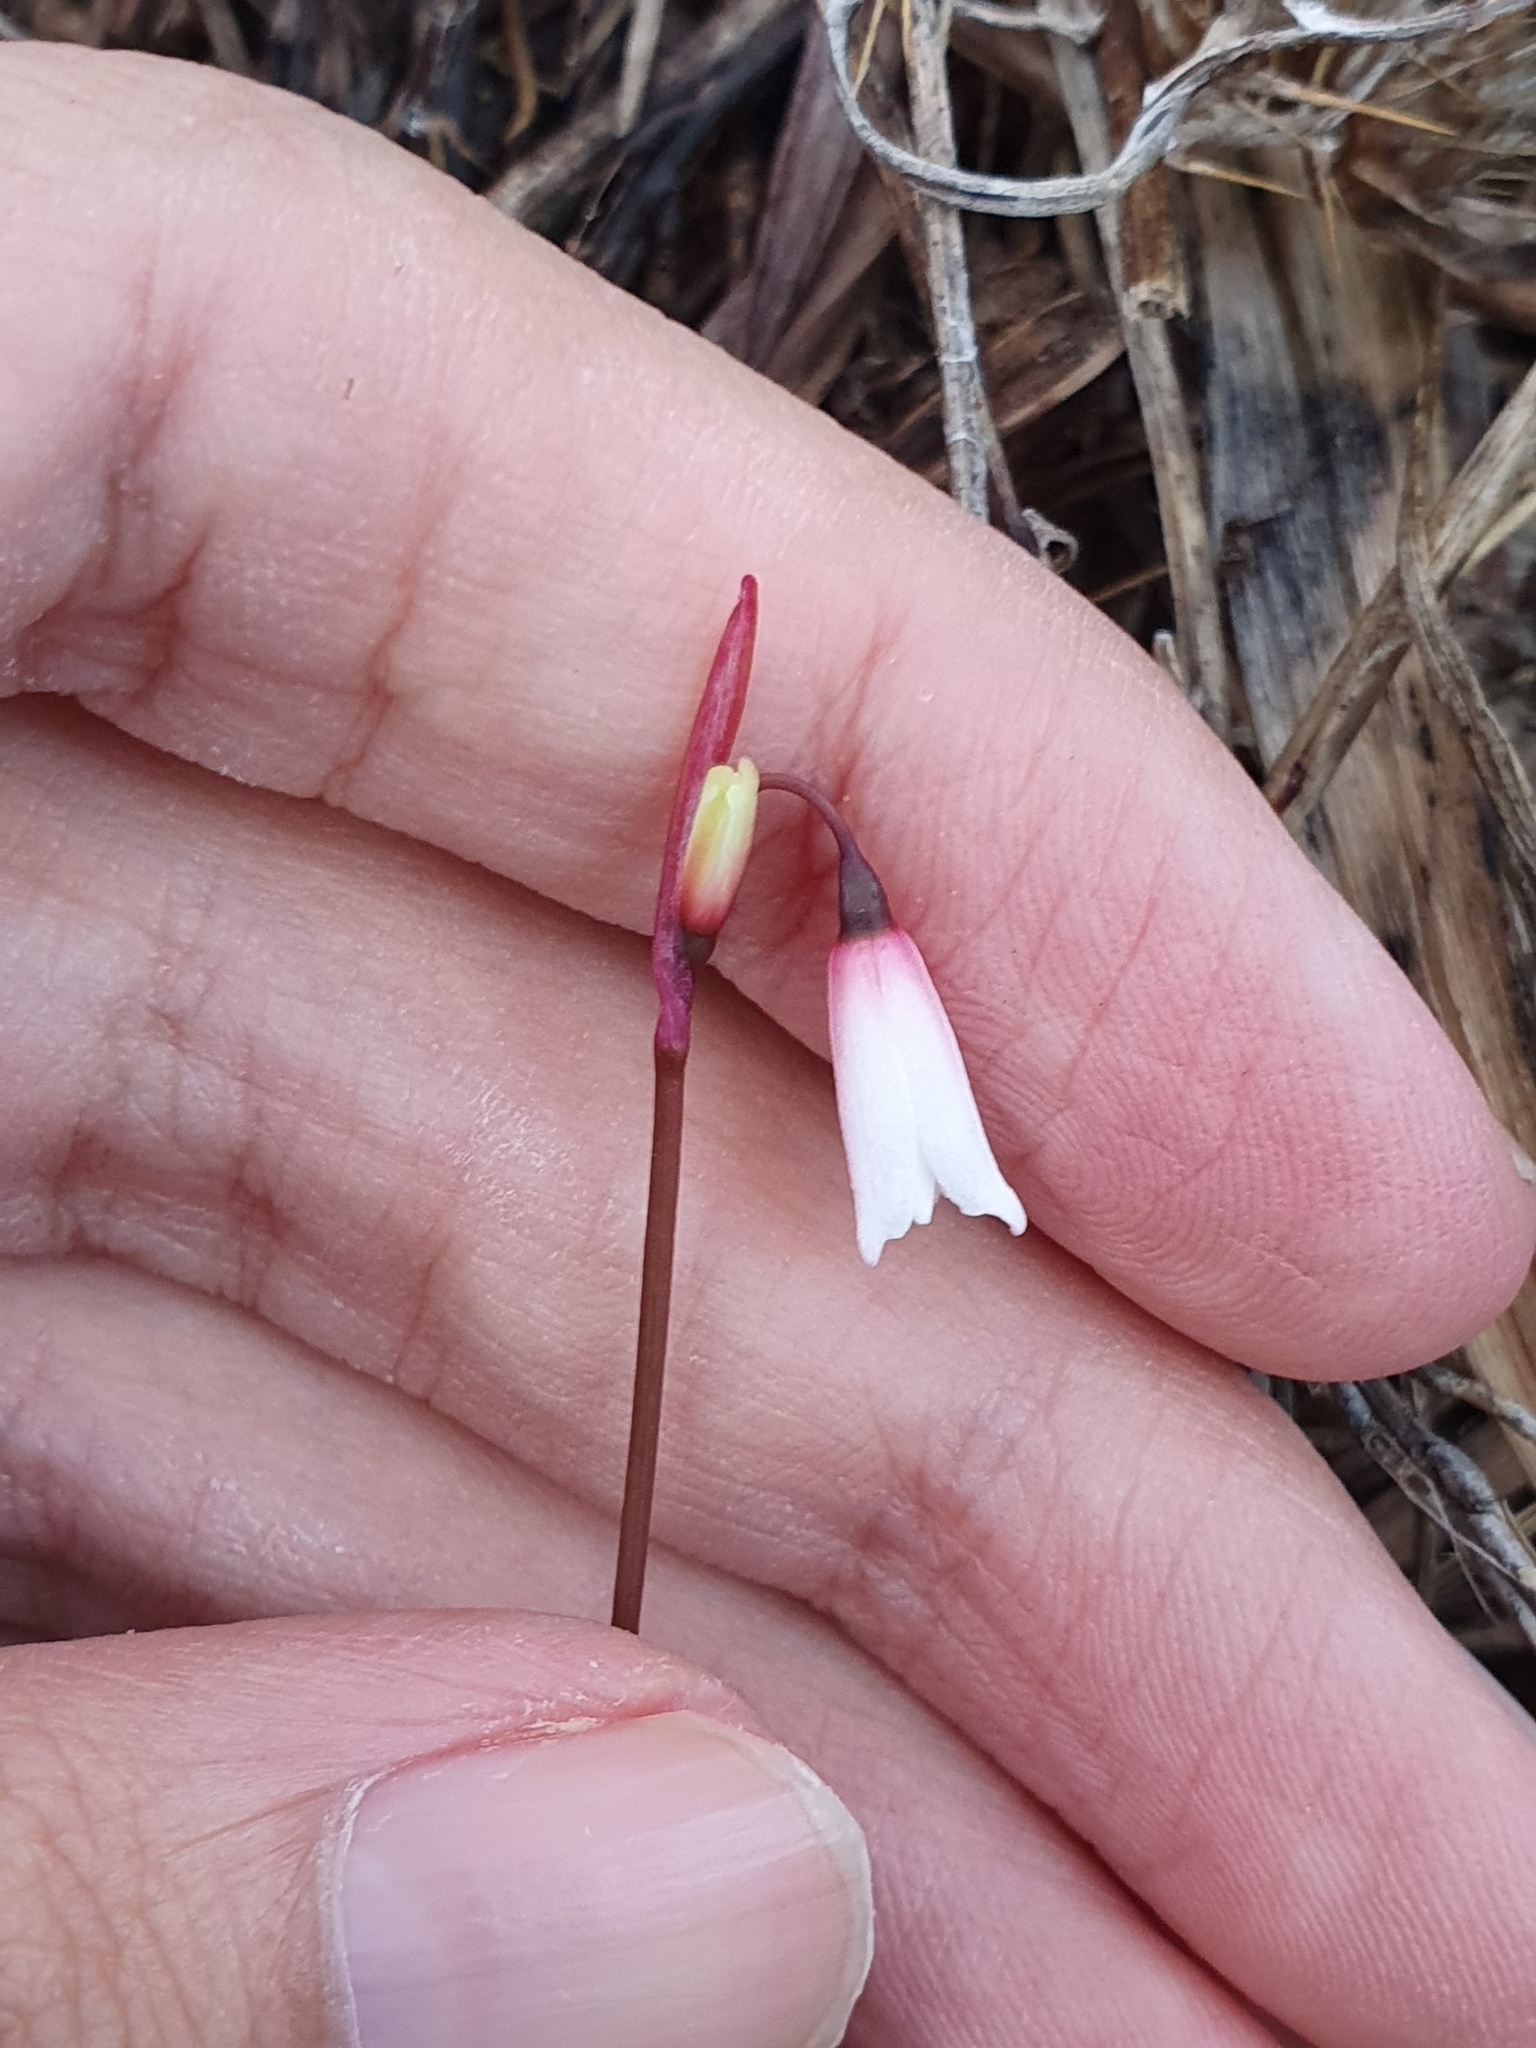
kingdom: Plantae
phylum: Tracheophyta
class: Liliopsida
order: Asparagales
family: Amaryllidaceae
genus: Acis
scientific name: Acis autumnalis
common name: Autumn snowflake
